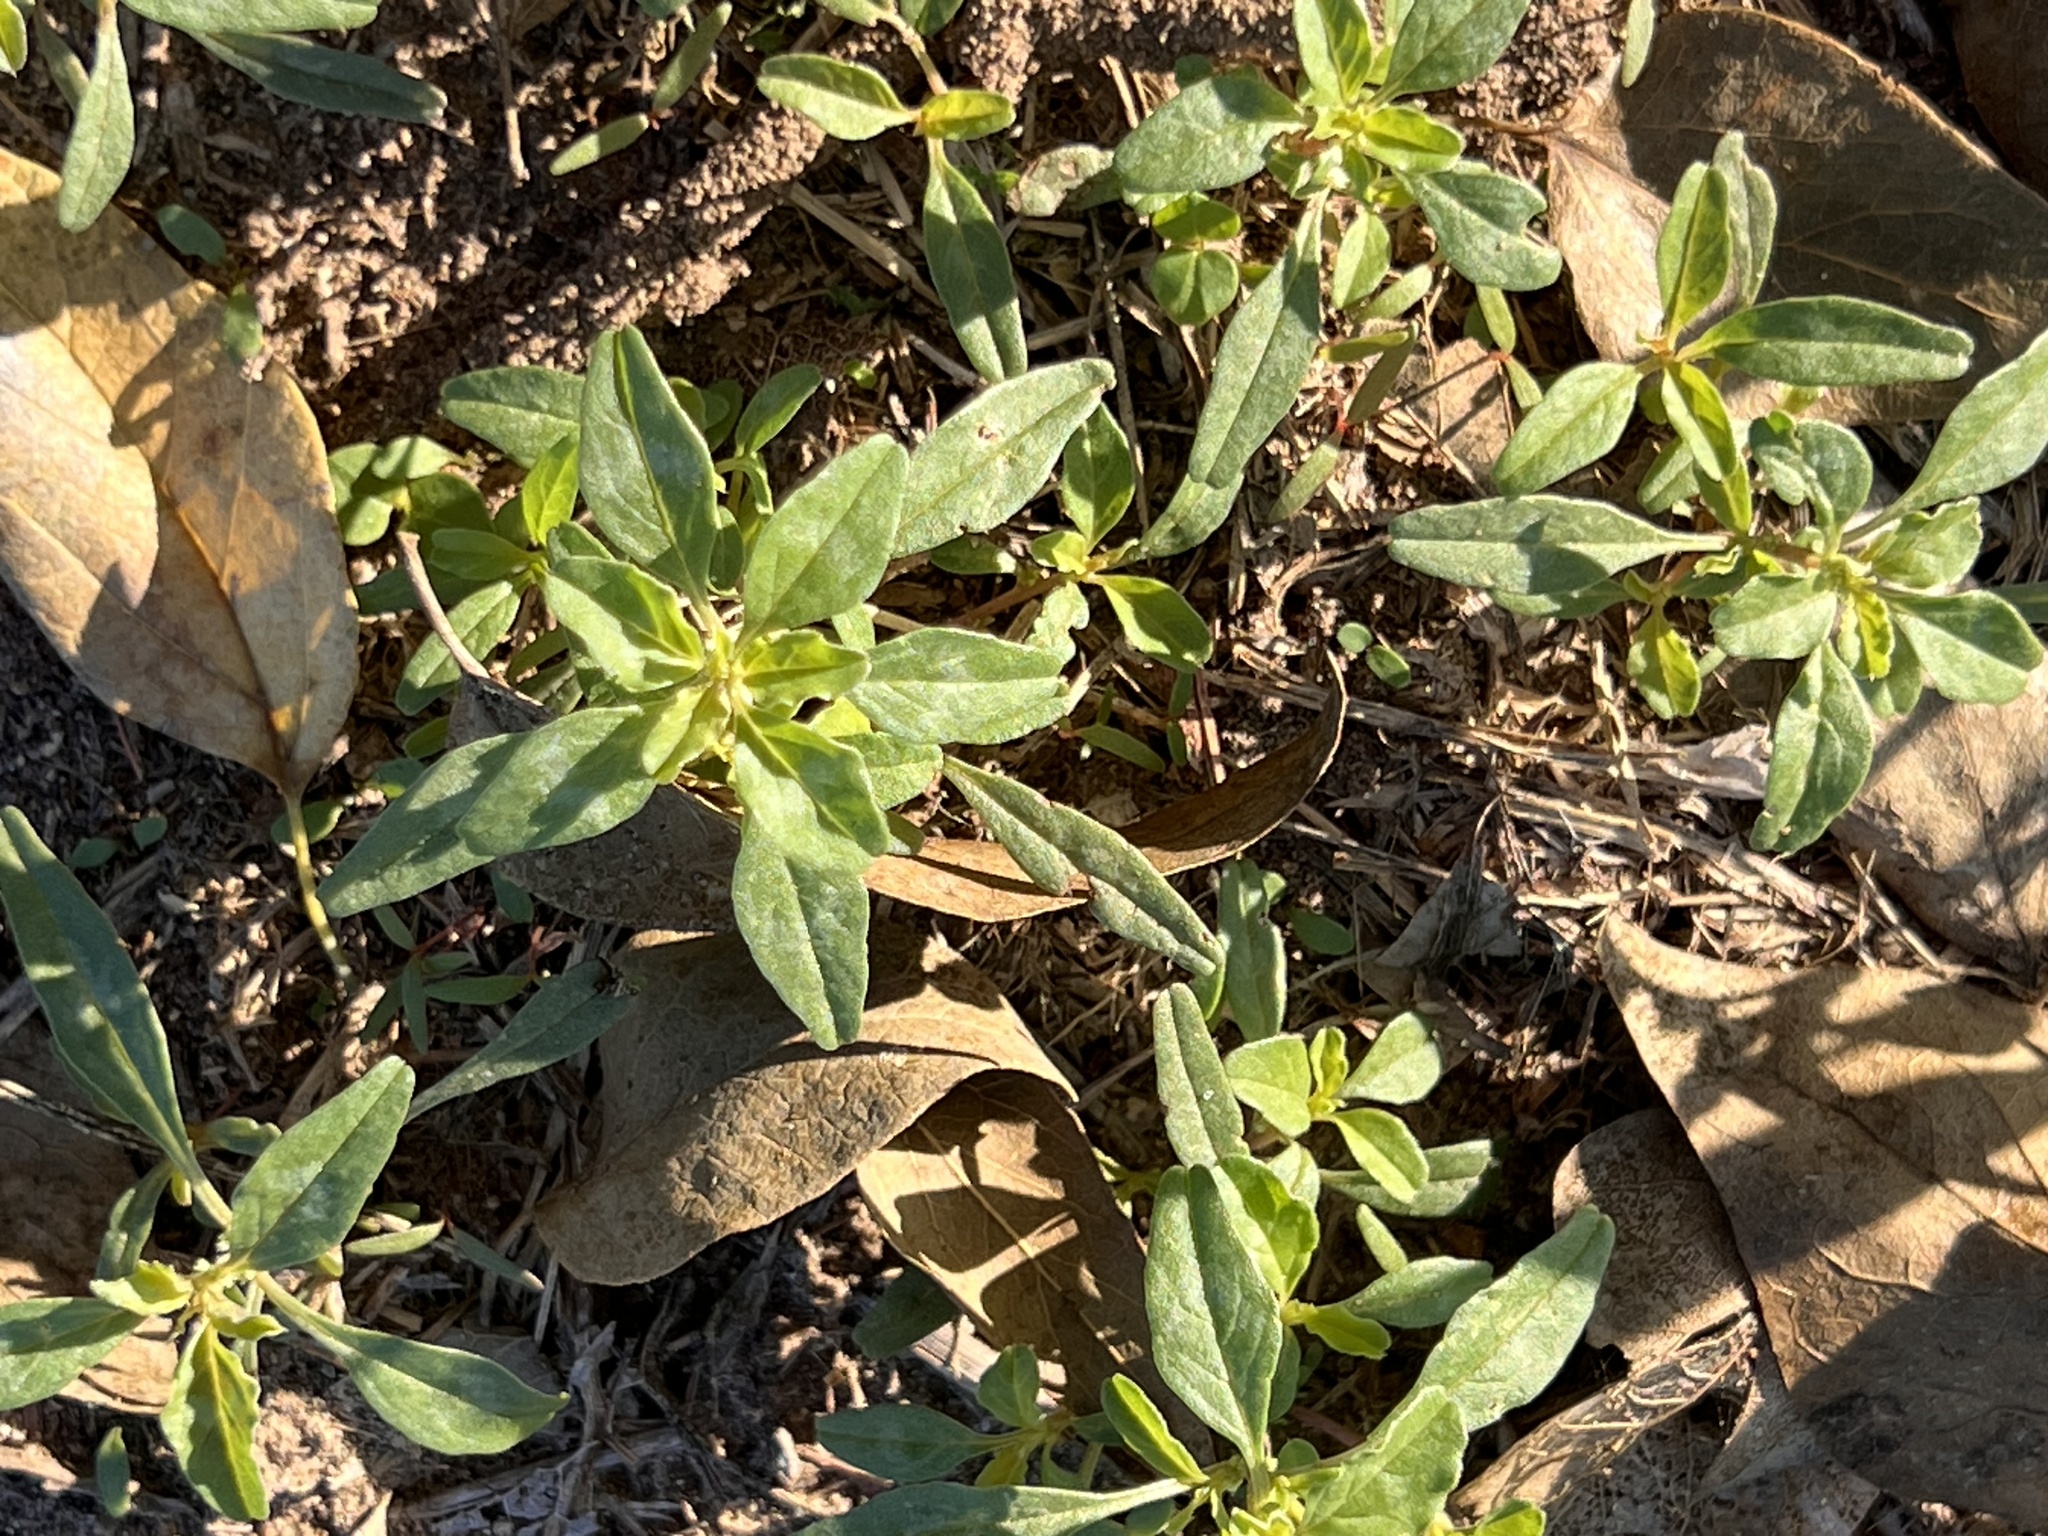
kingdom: Plantae
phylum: Tracheophyta
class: Magnoliopsida
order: Caryophyllales
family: Amaranthaceae
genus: Amaranthus
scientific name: Amaranthus polygonoides
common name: Tropical amaranth
